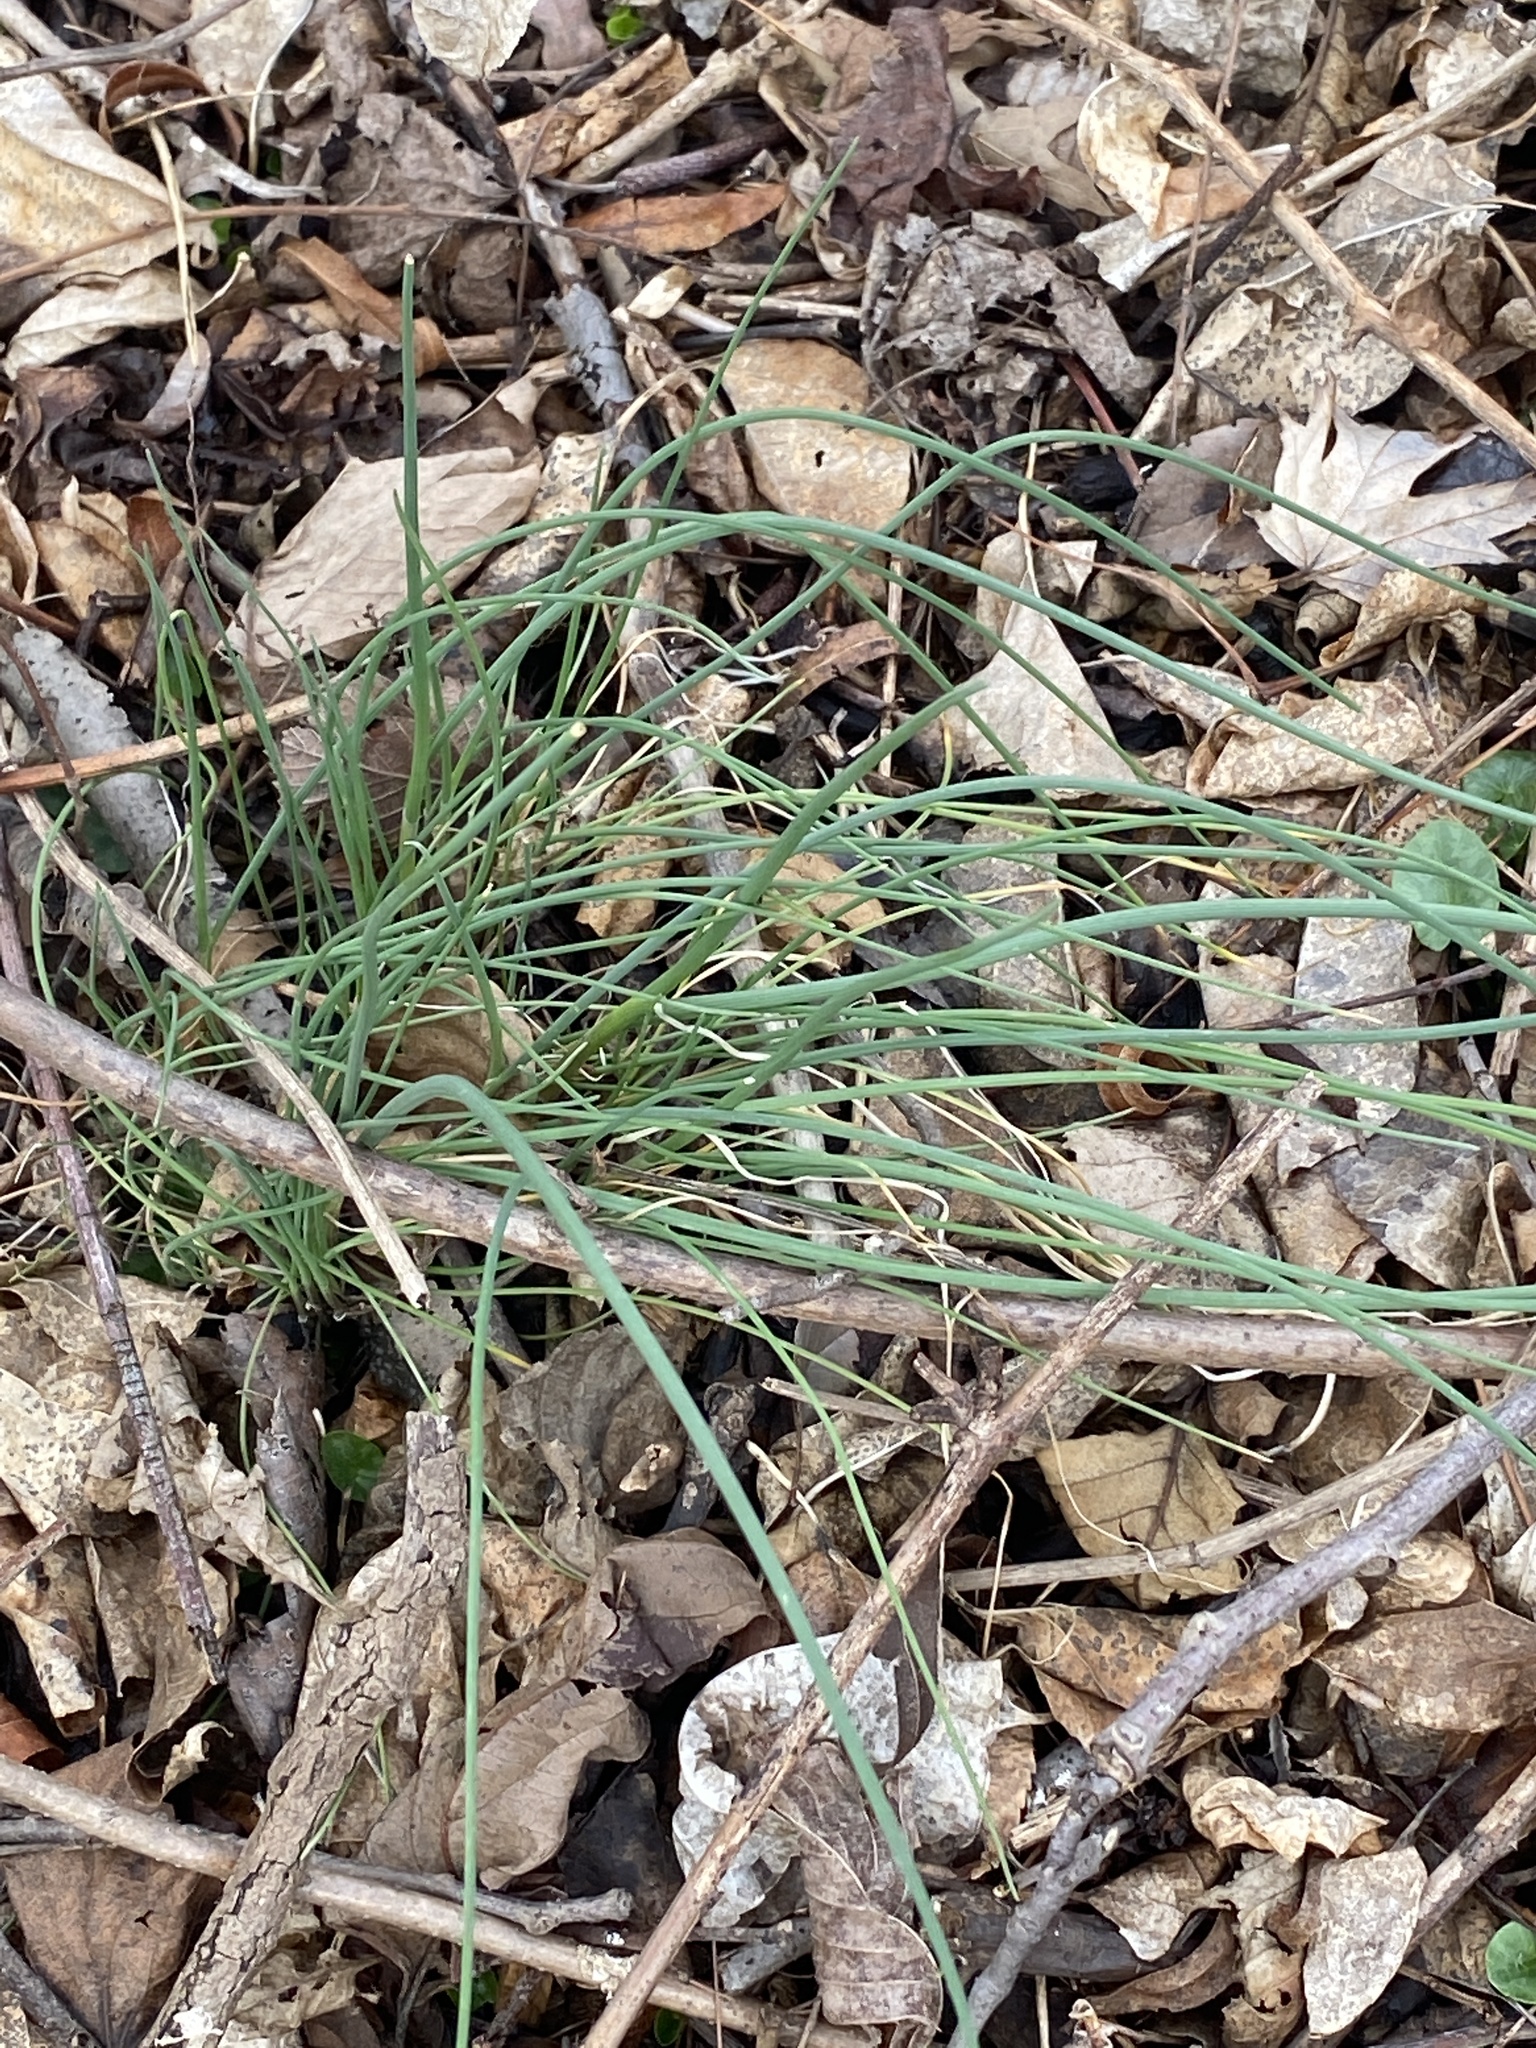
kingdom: Plantae
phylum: Tracheophyta
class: Liliopsida
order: Asparagales
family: Amaryllidaceae
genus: Allium
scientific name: Allium vineale
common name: Crow garlic
